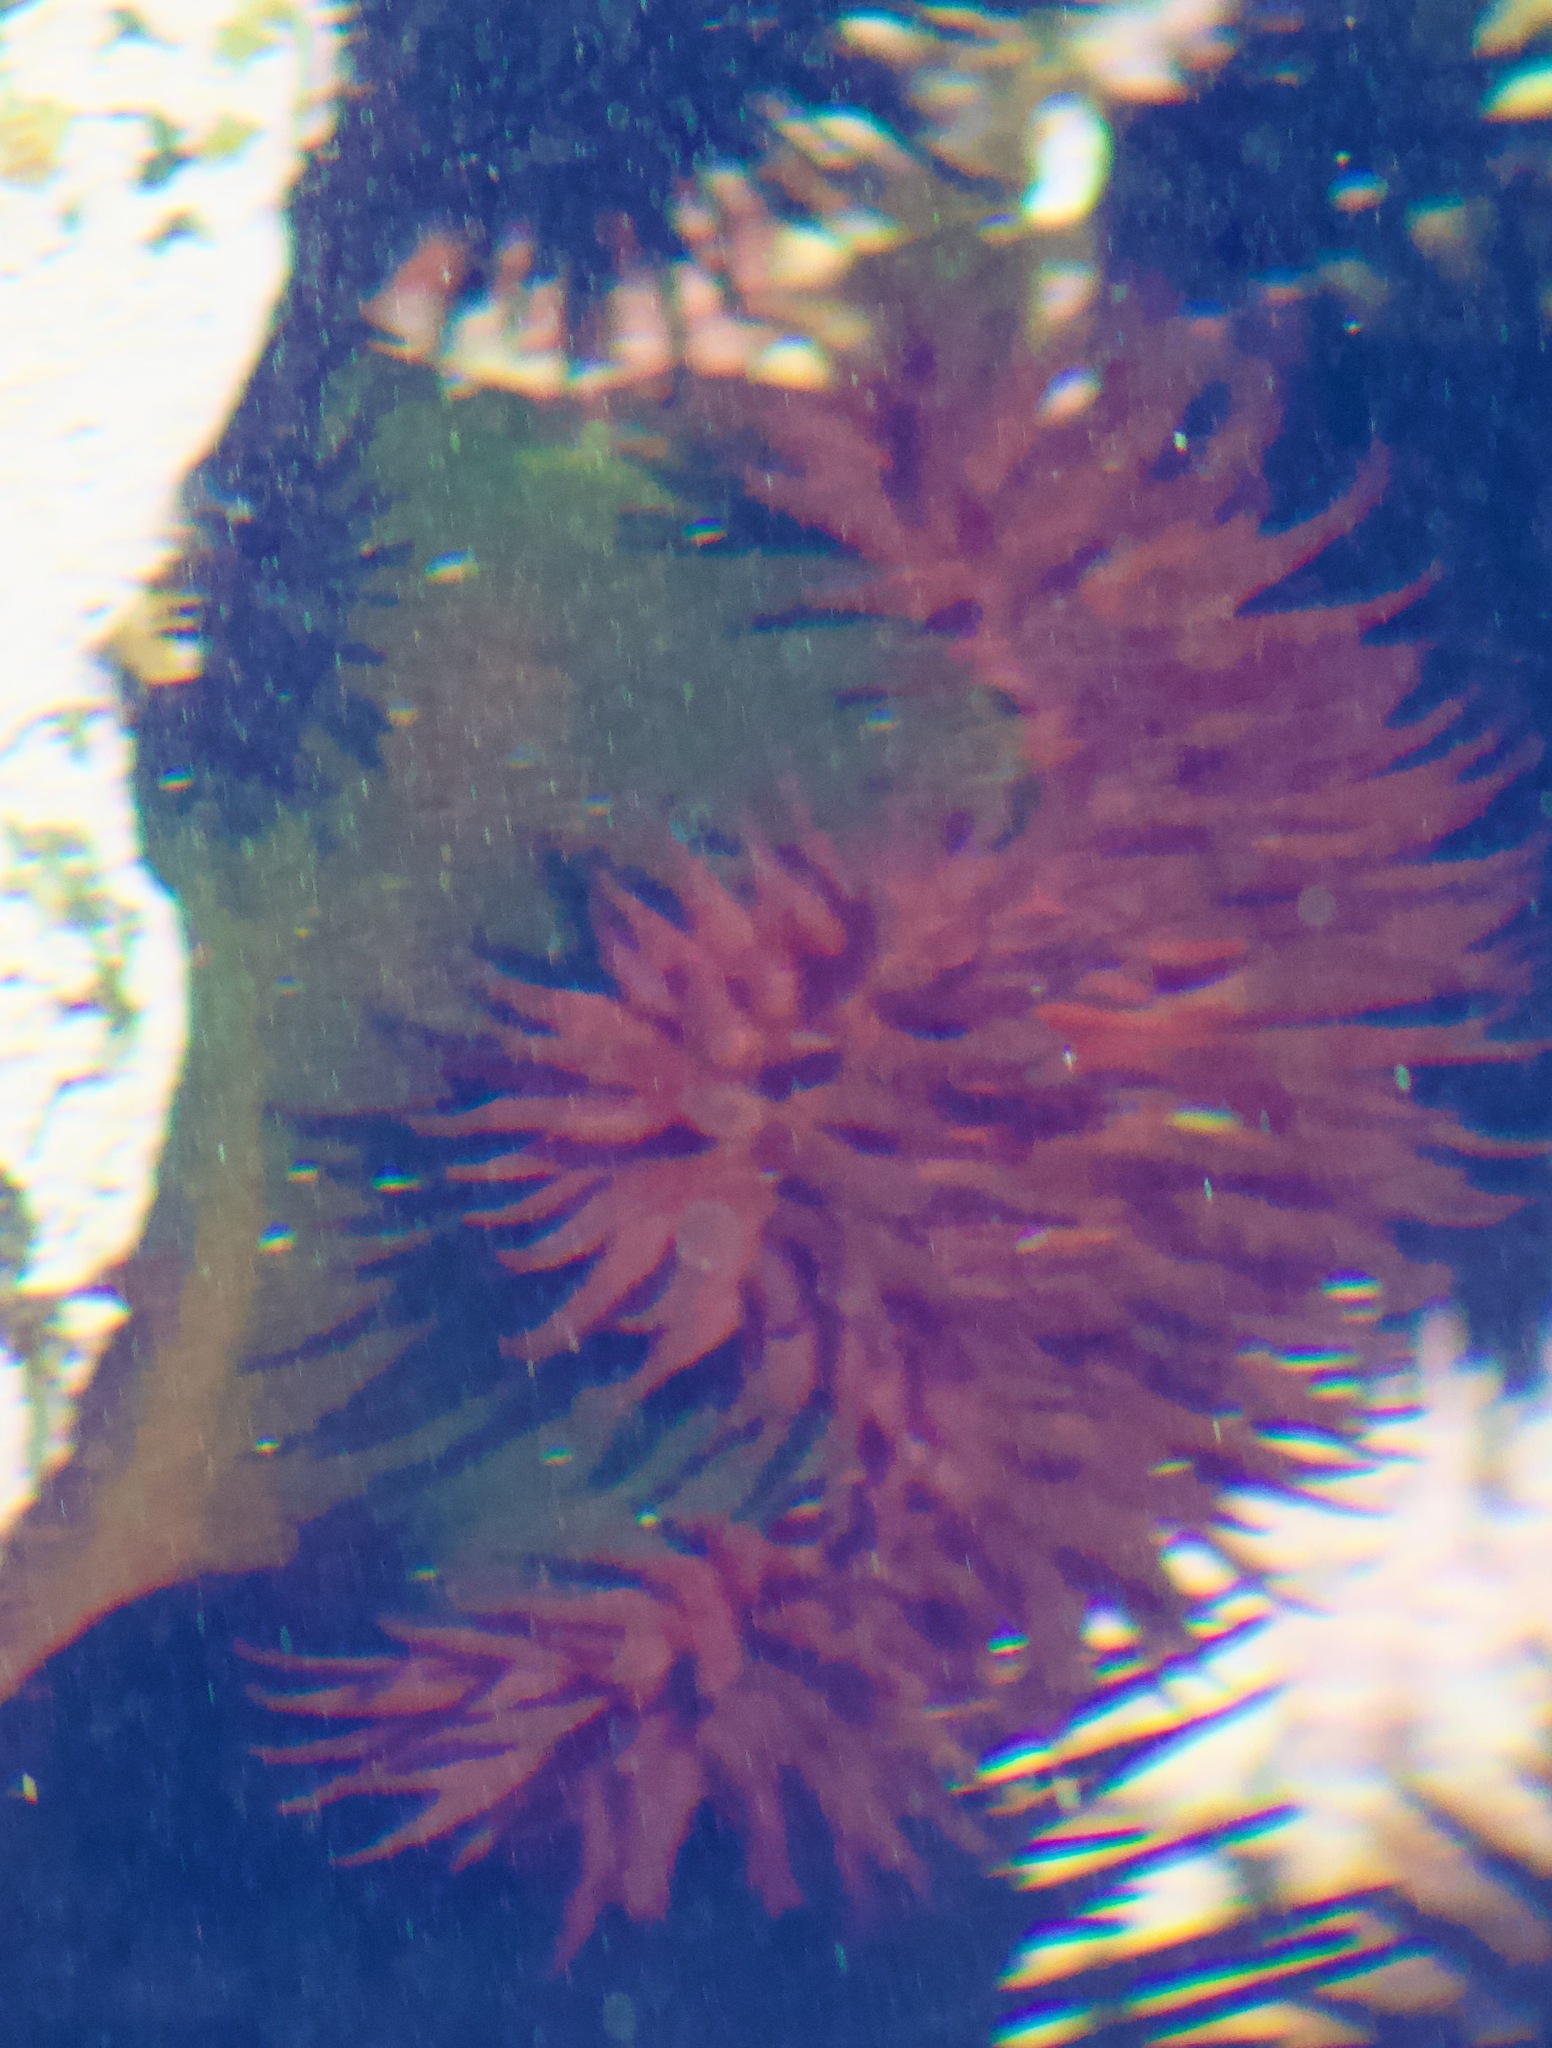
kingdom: Animalia
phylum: Cnidaria
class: Anthozoa
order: Actiniaria
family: Actiniidae
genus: Phymactis
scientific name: Phymactis papillosa
